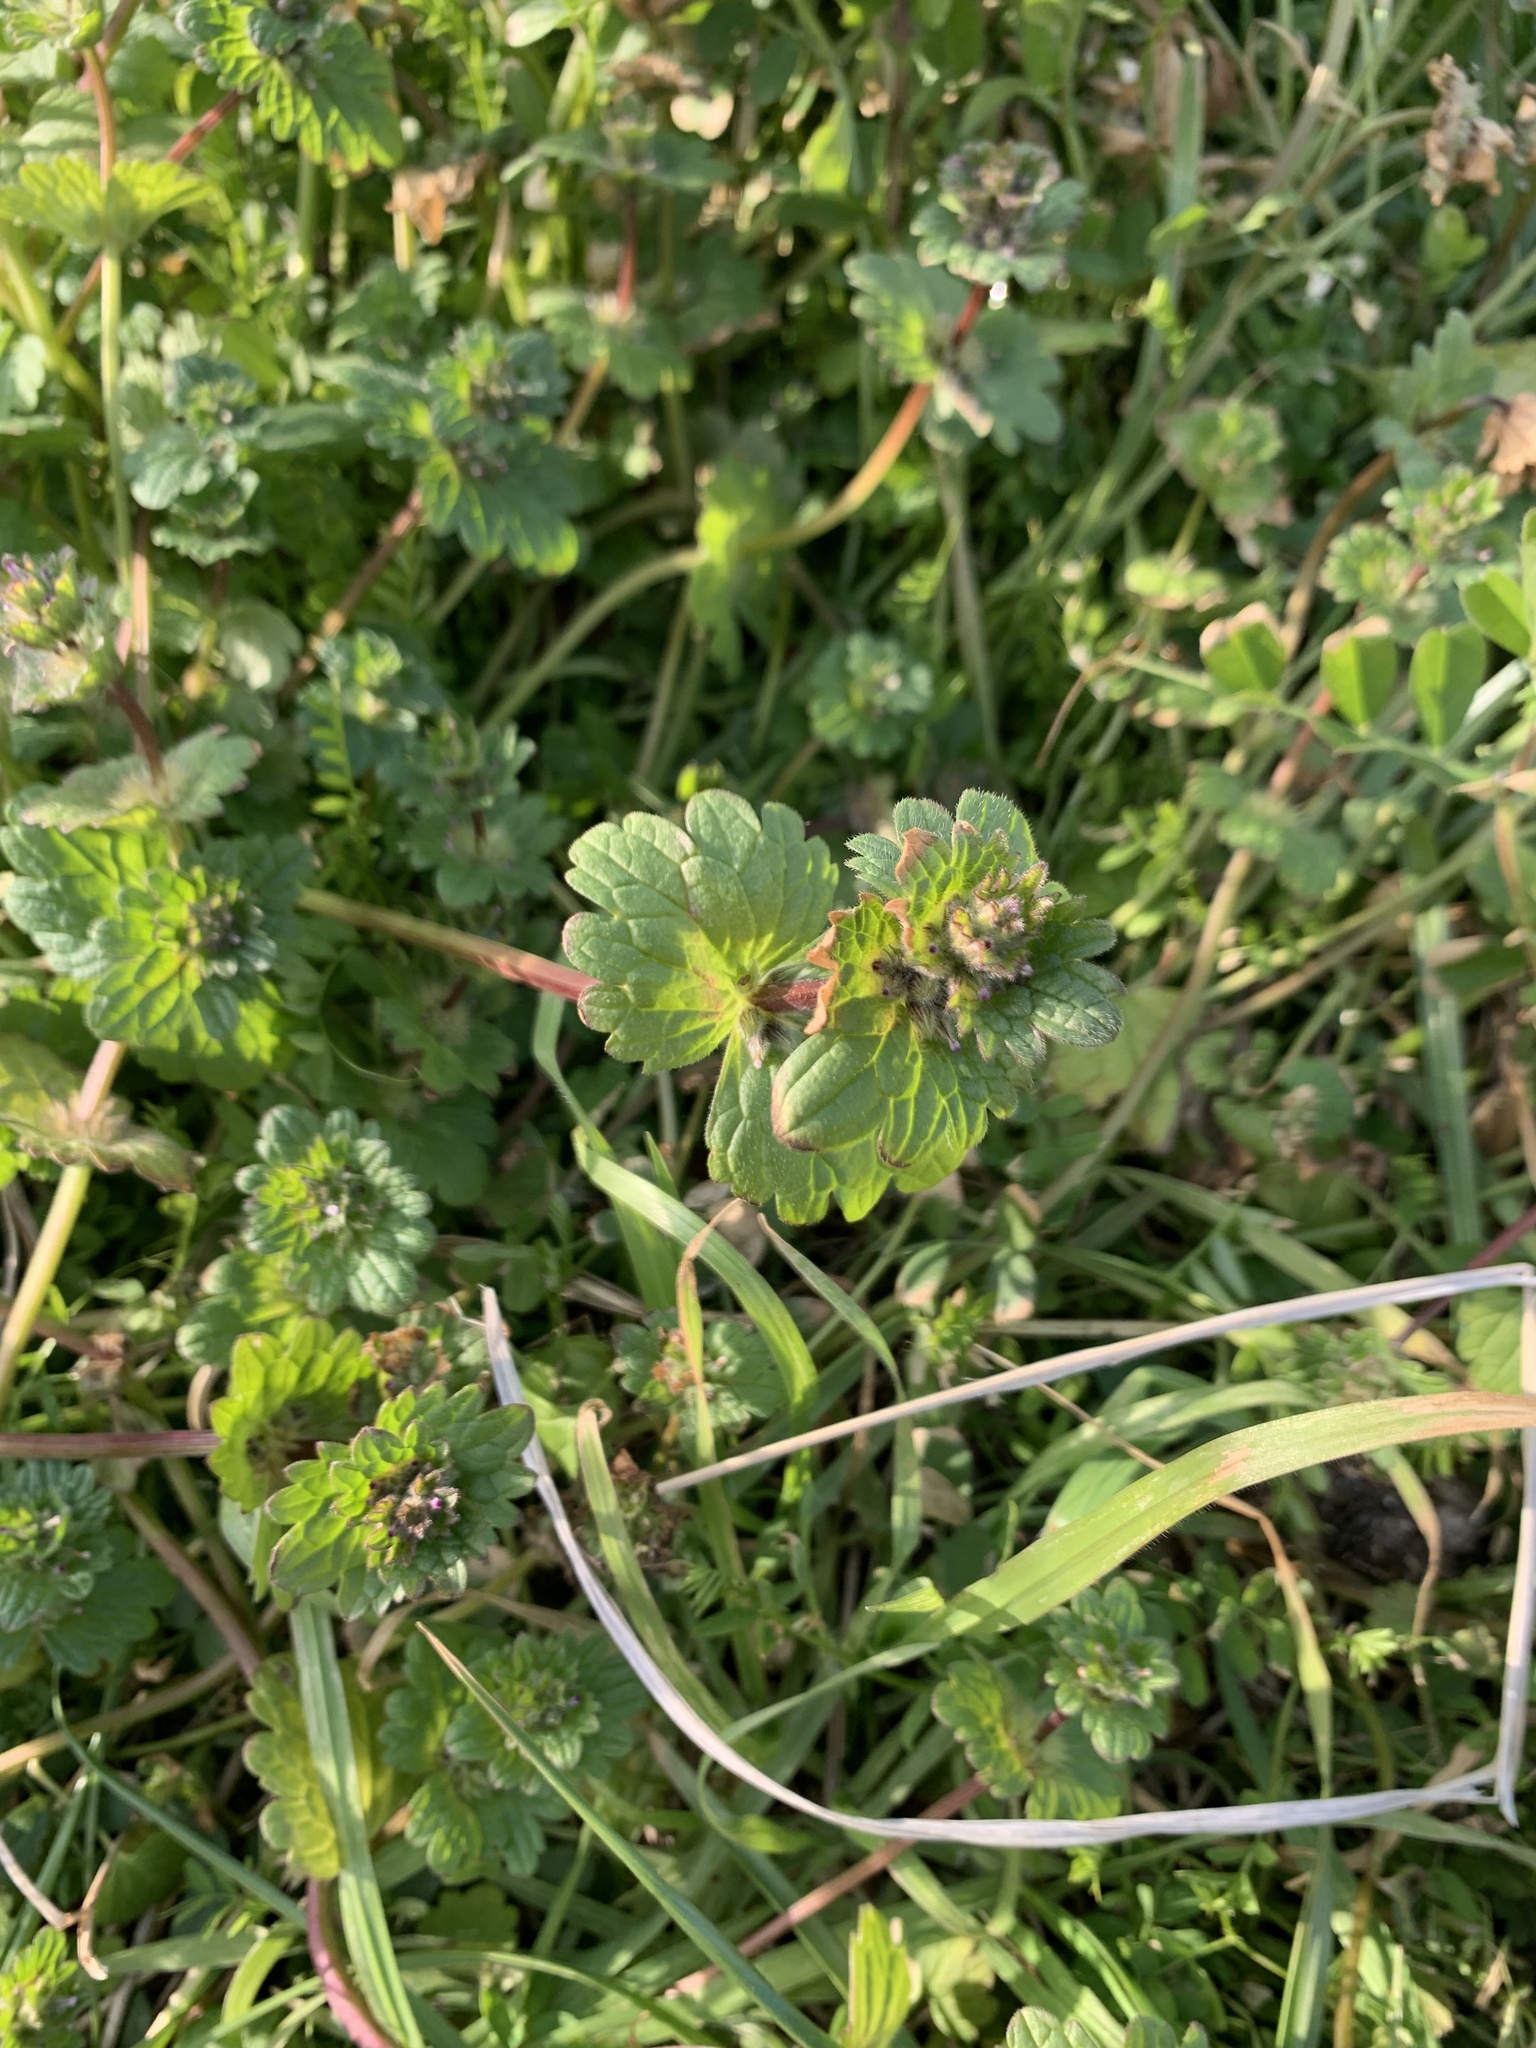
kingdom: Plantae
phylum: Tracheophyta
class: Magnoliopsida
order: Lamiales
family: Lamiaceae
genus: Lamium
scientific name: Lamium amplexicaule
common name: Henbit dead-nettle
